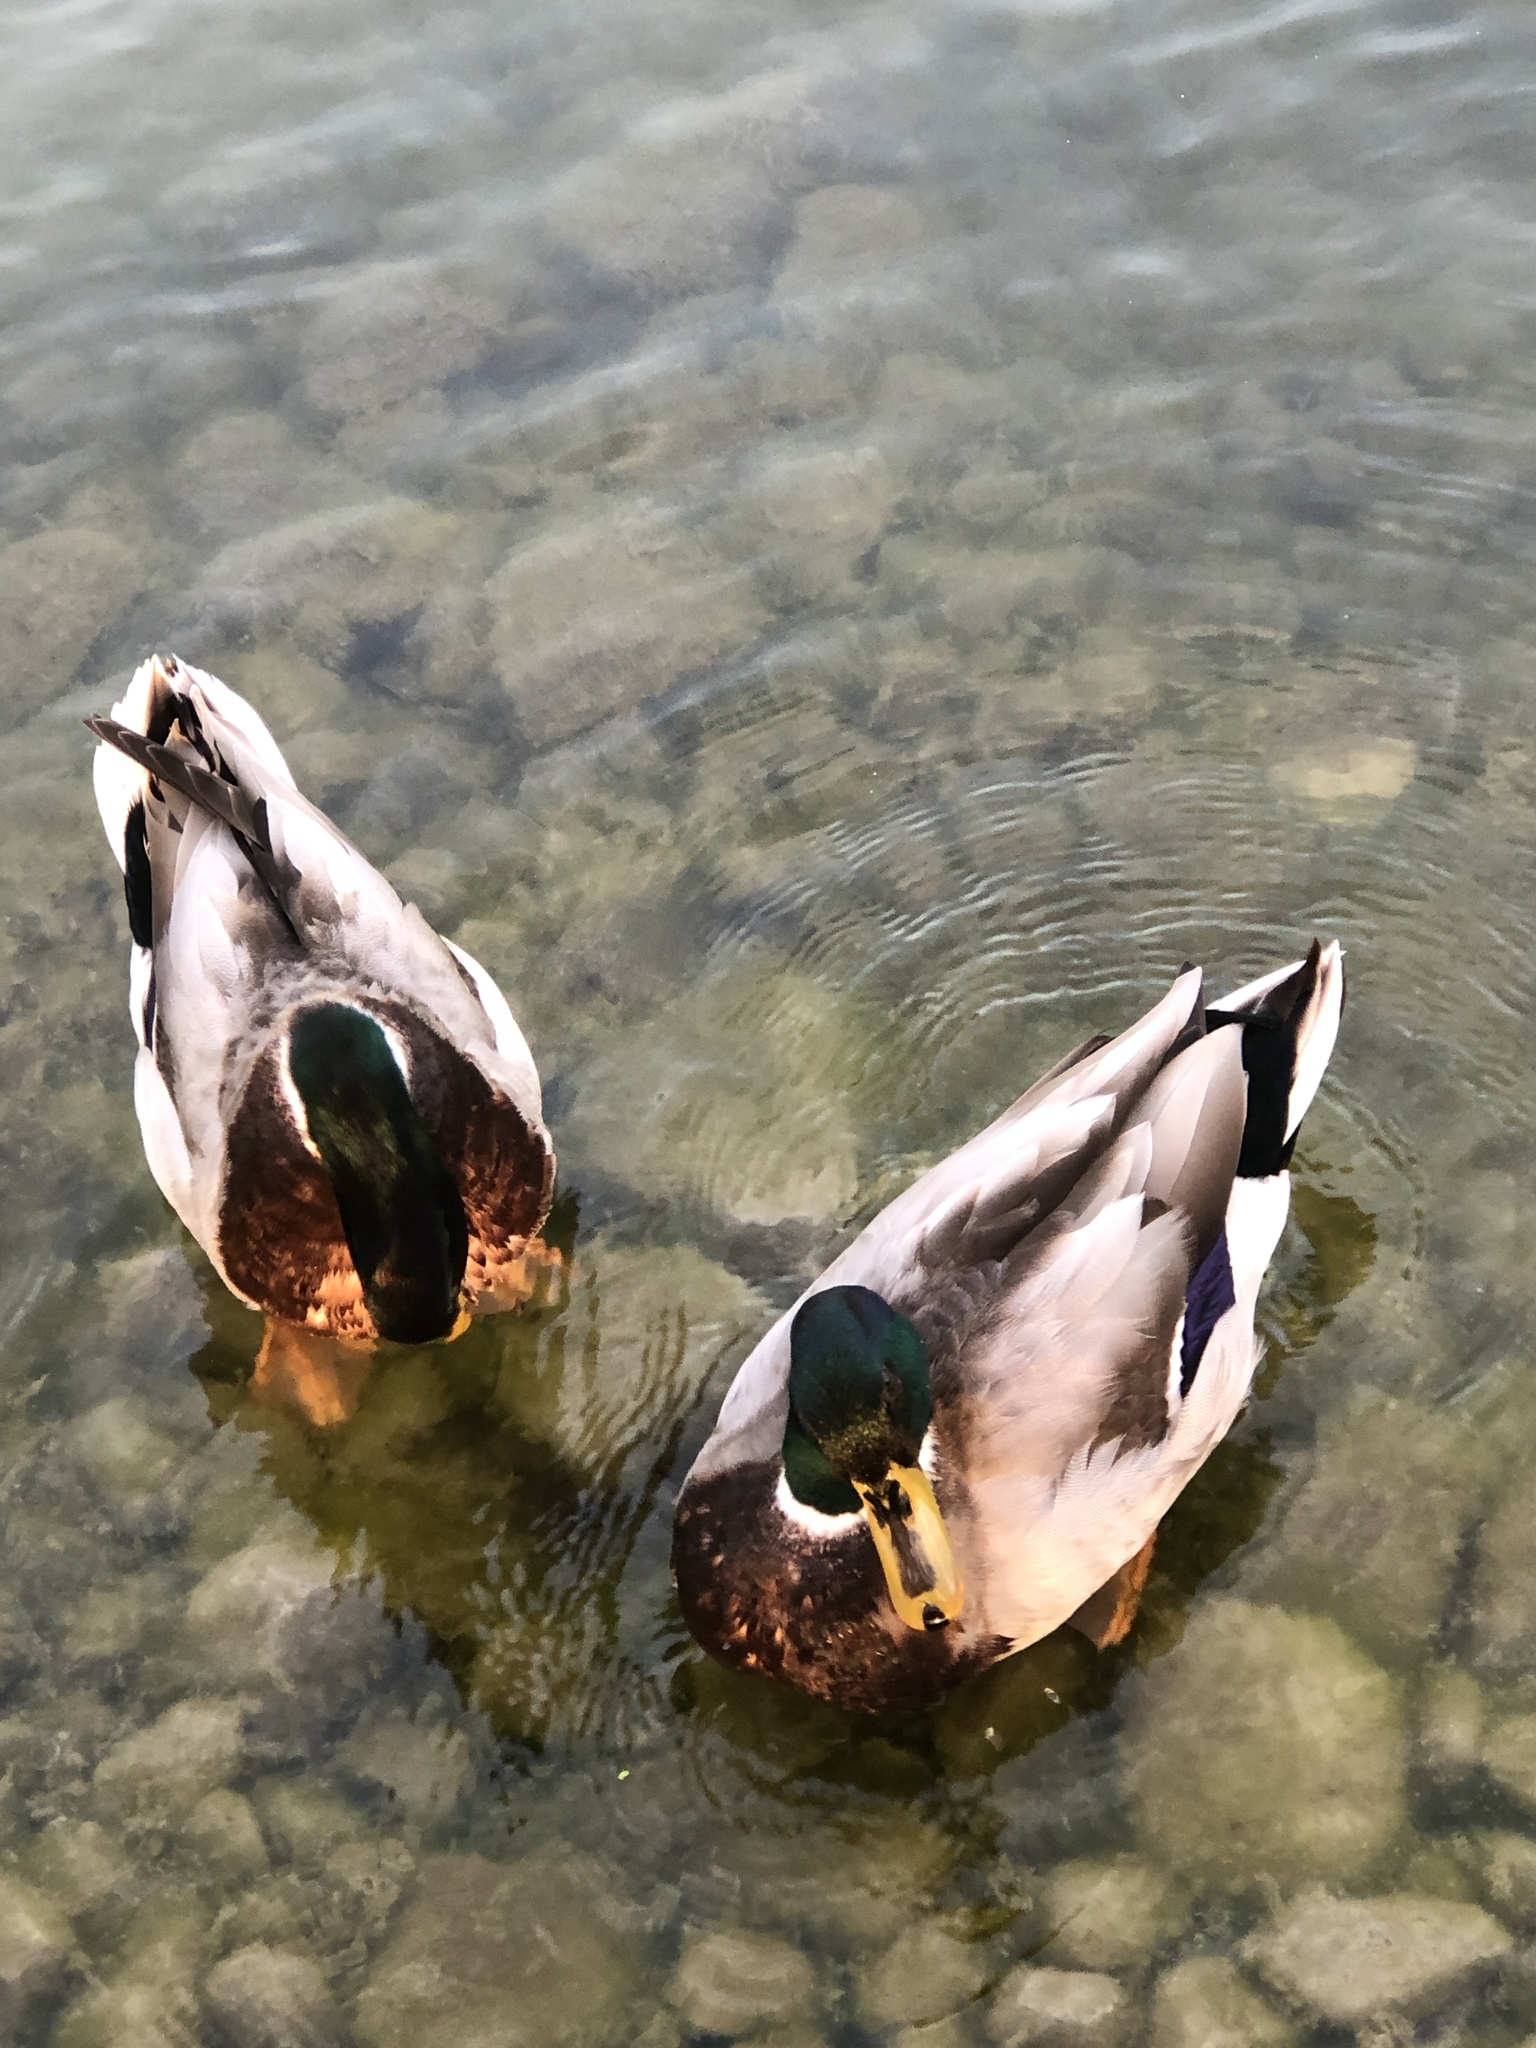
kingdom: Animalia
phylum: Chordata
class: Aves
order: Anseriformes
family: Anatidae
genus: Anas
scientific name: Anas platyrhynchos
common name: Mallard
